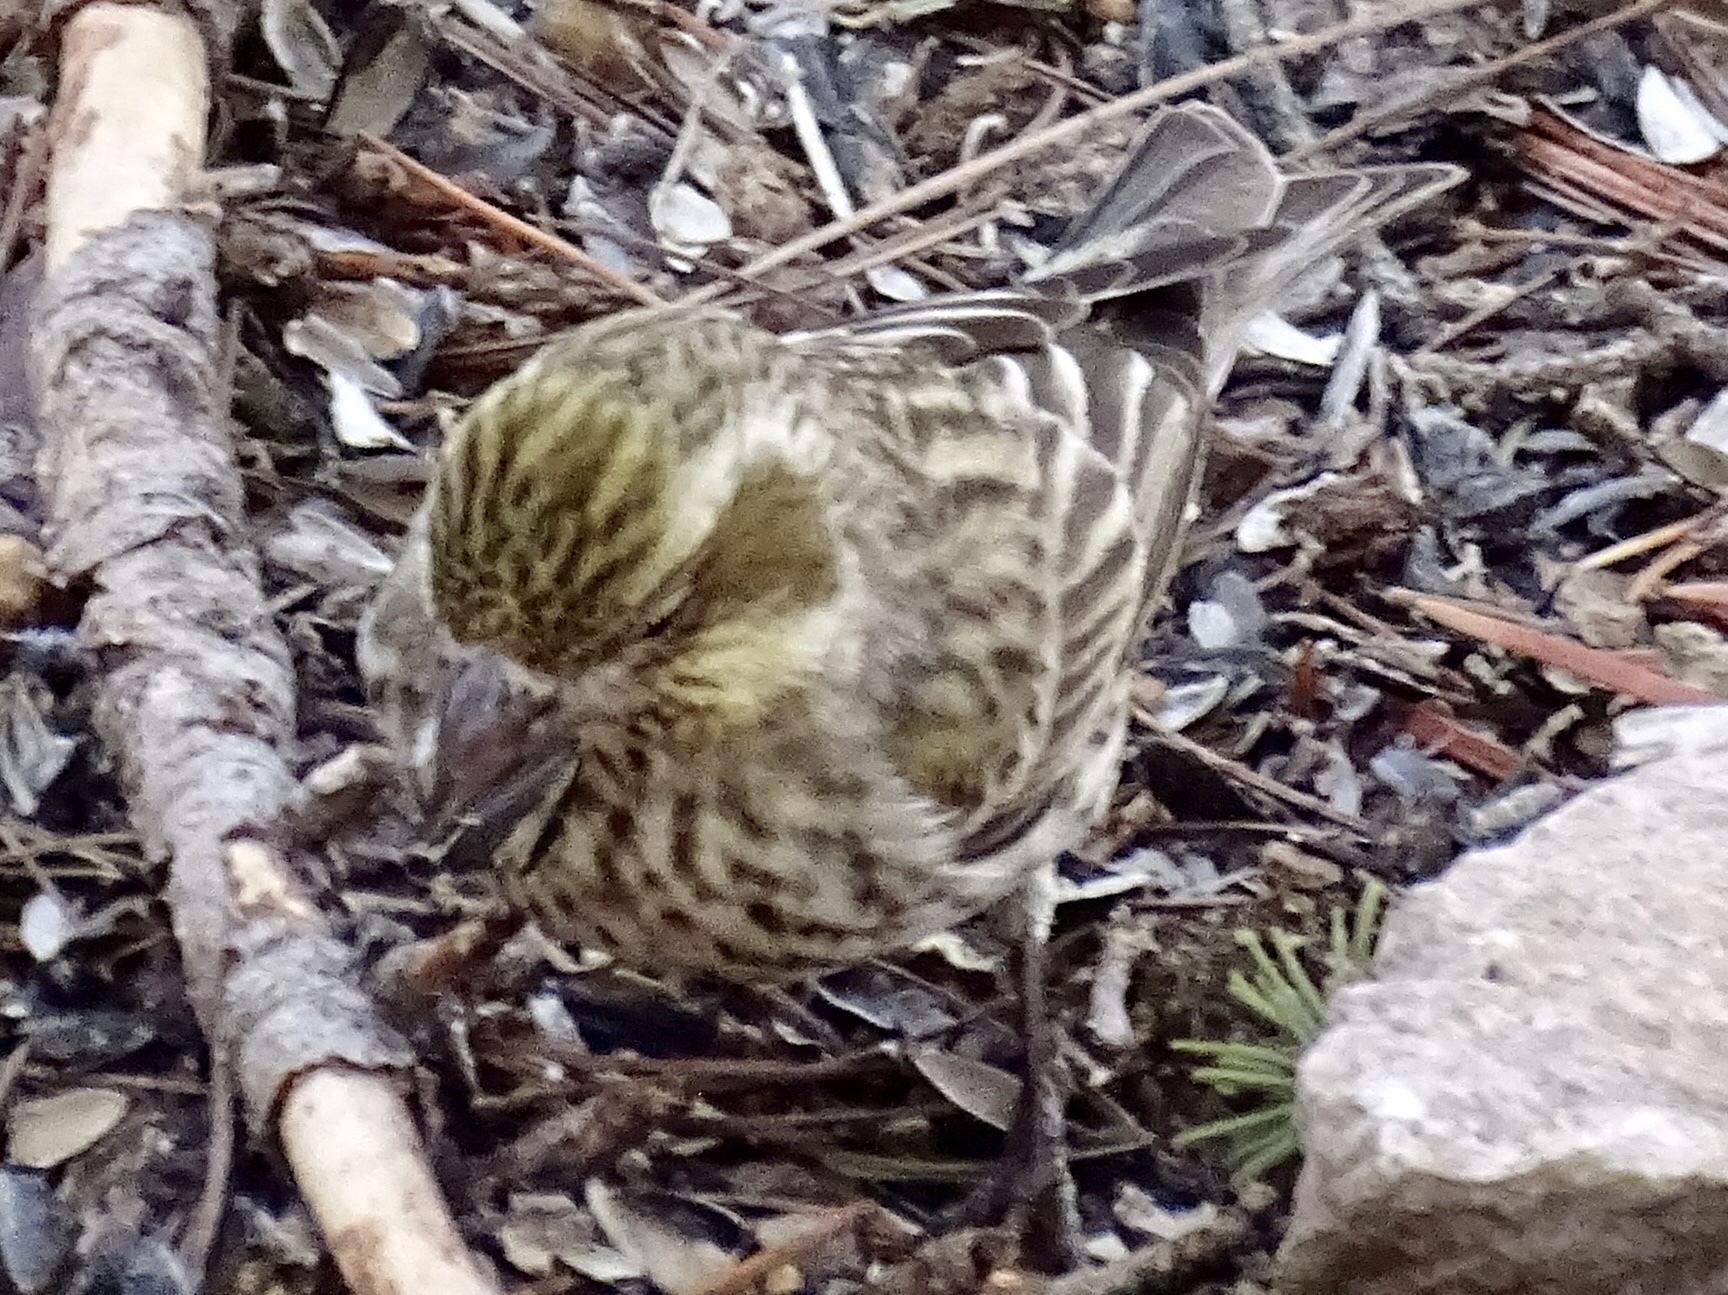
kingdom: Animalia
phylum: Chordata
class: Aves
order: Passeriformes
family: Fringillidae
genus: Haemorhous
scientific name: Haemorhous cassinii
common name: Cassin's finch
